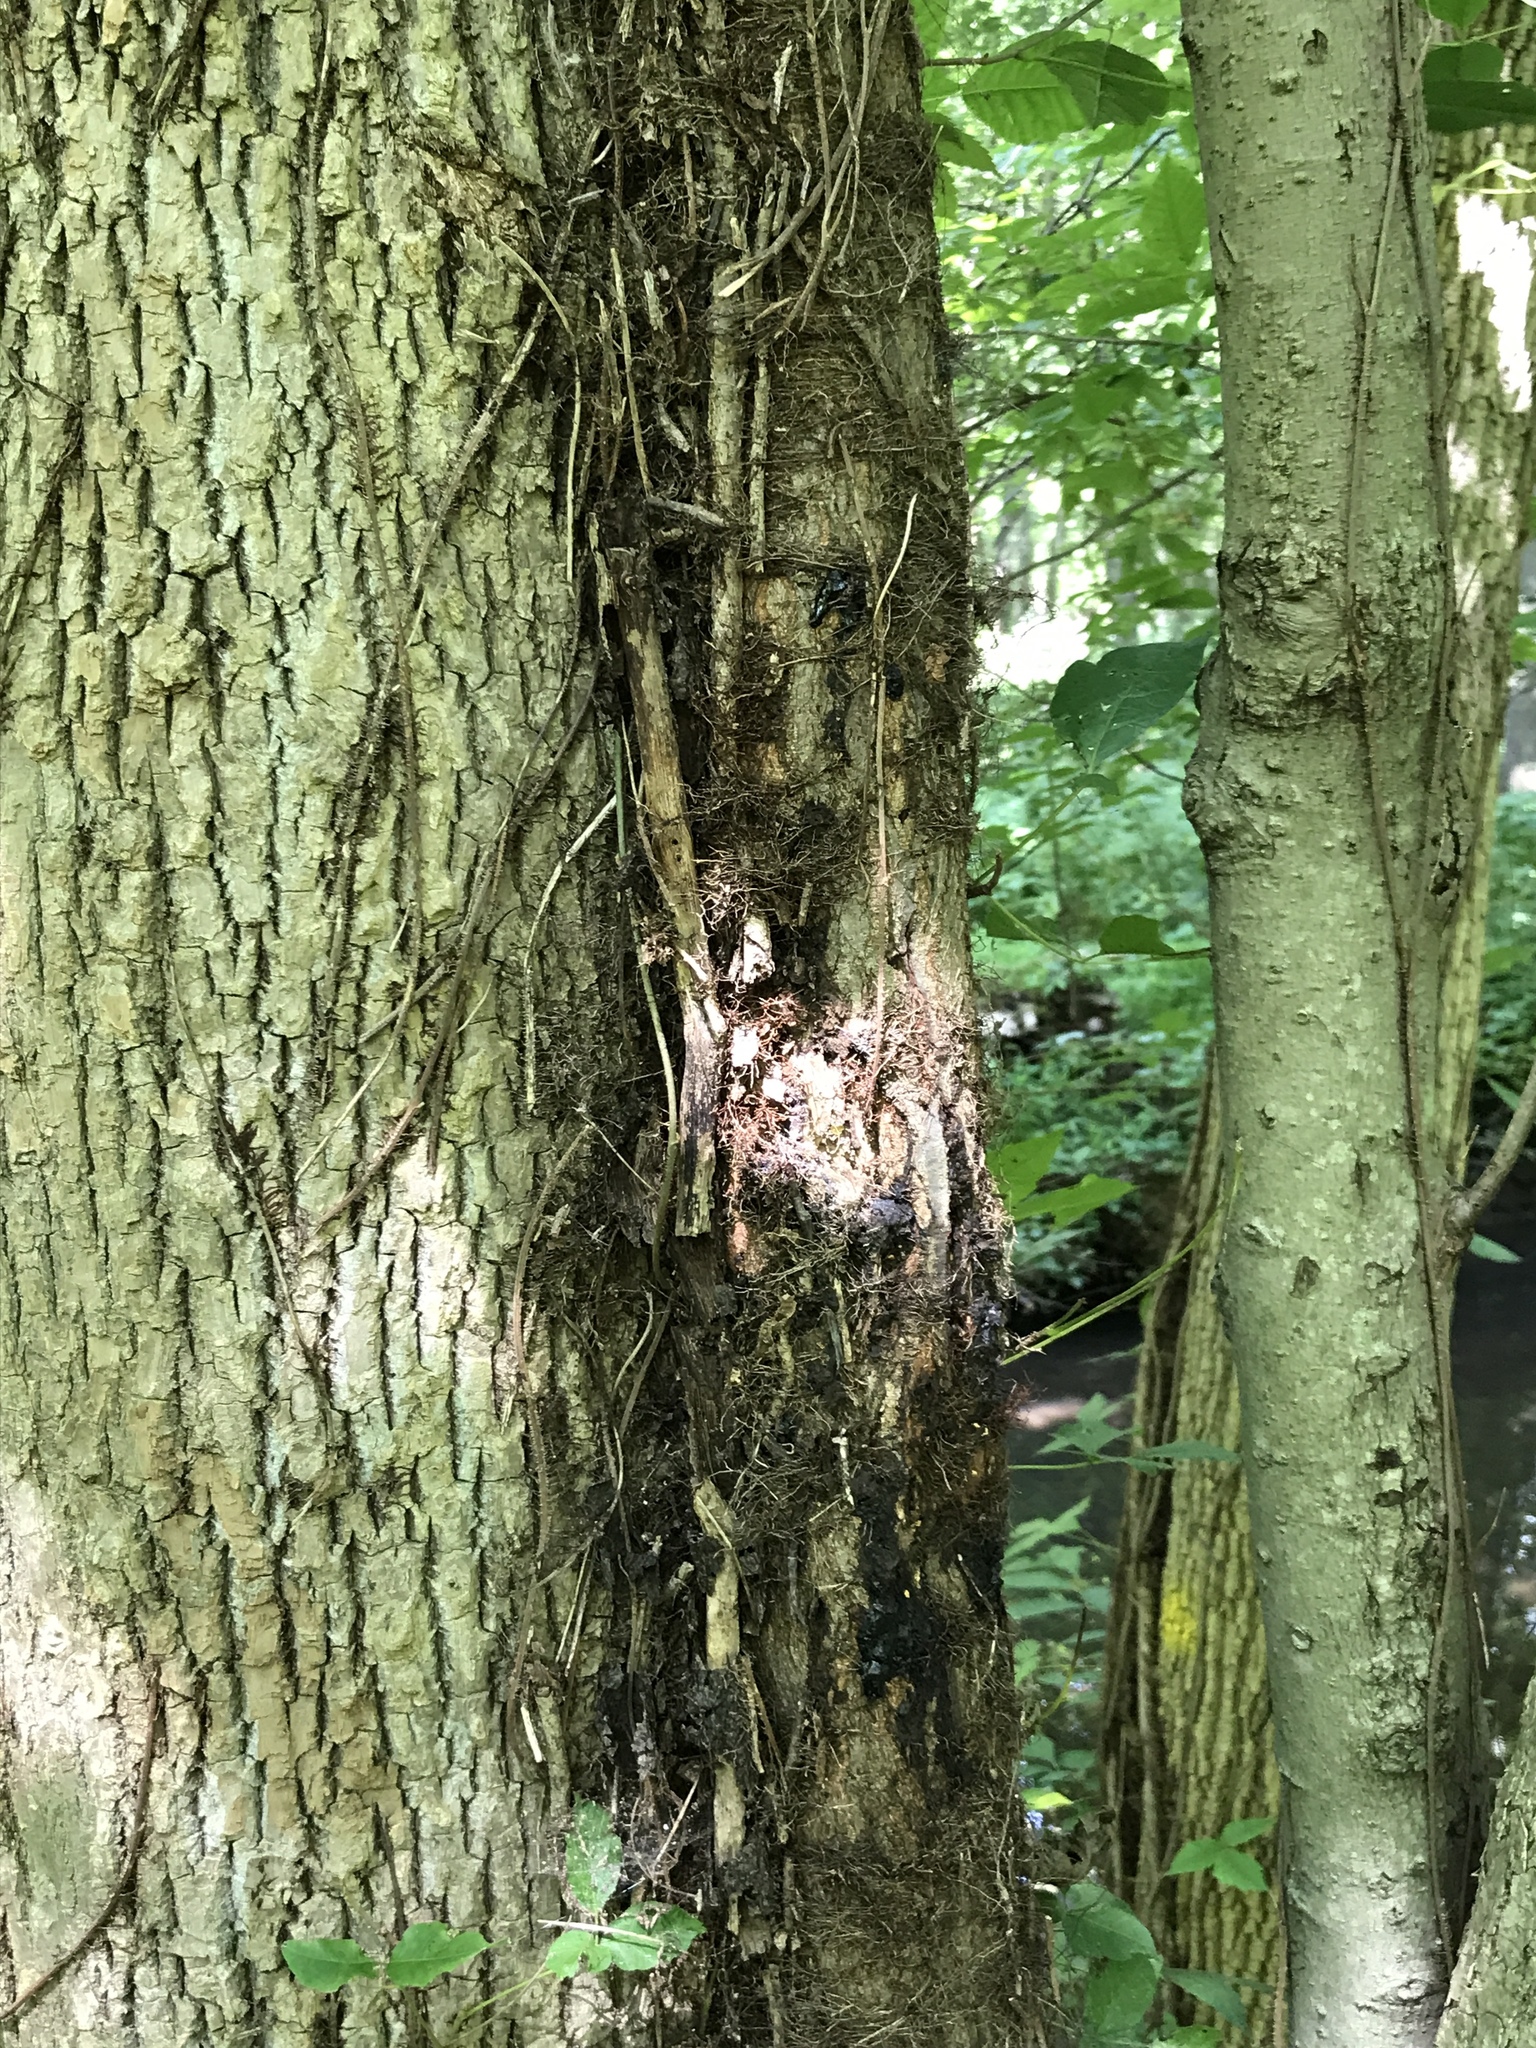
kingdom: Plantae
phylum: Tracheophyta
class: Magnoliopsida
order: Sapindales
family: Anacardiaceae
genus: Toxicodendron
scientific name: Toxicodendron radicans
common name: Poison ivy
